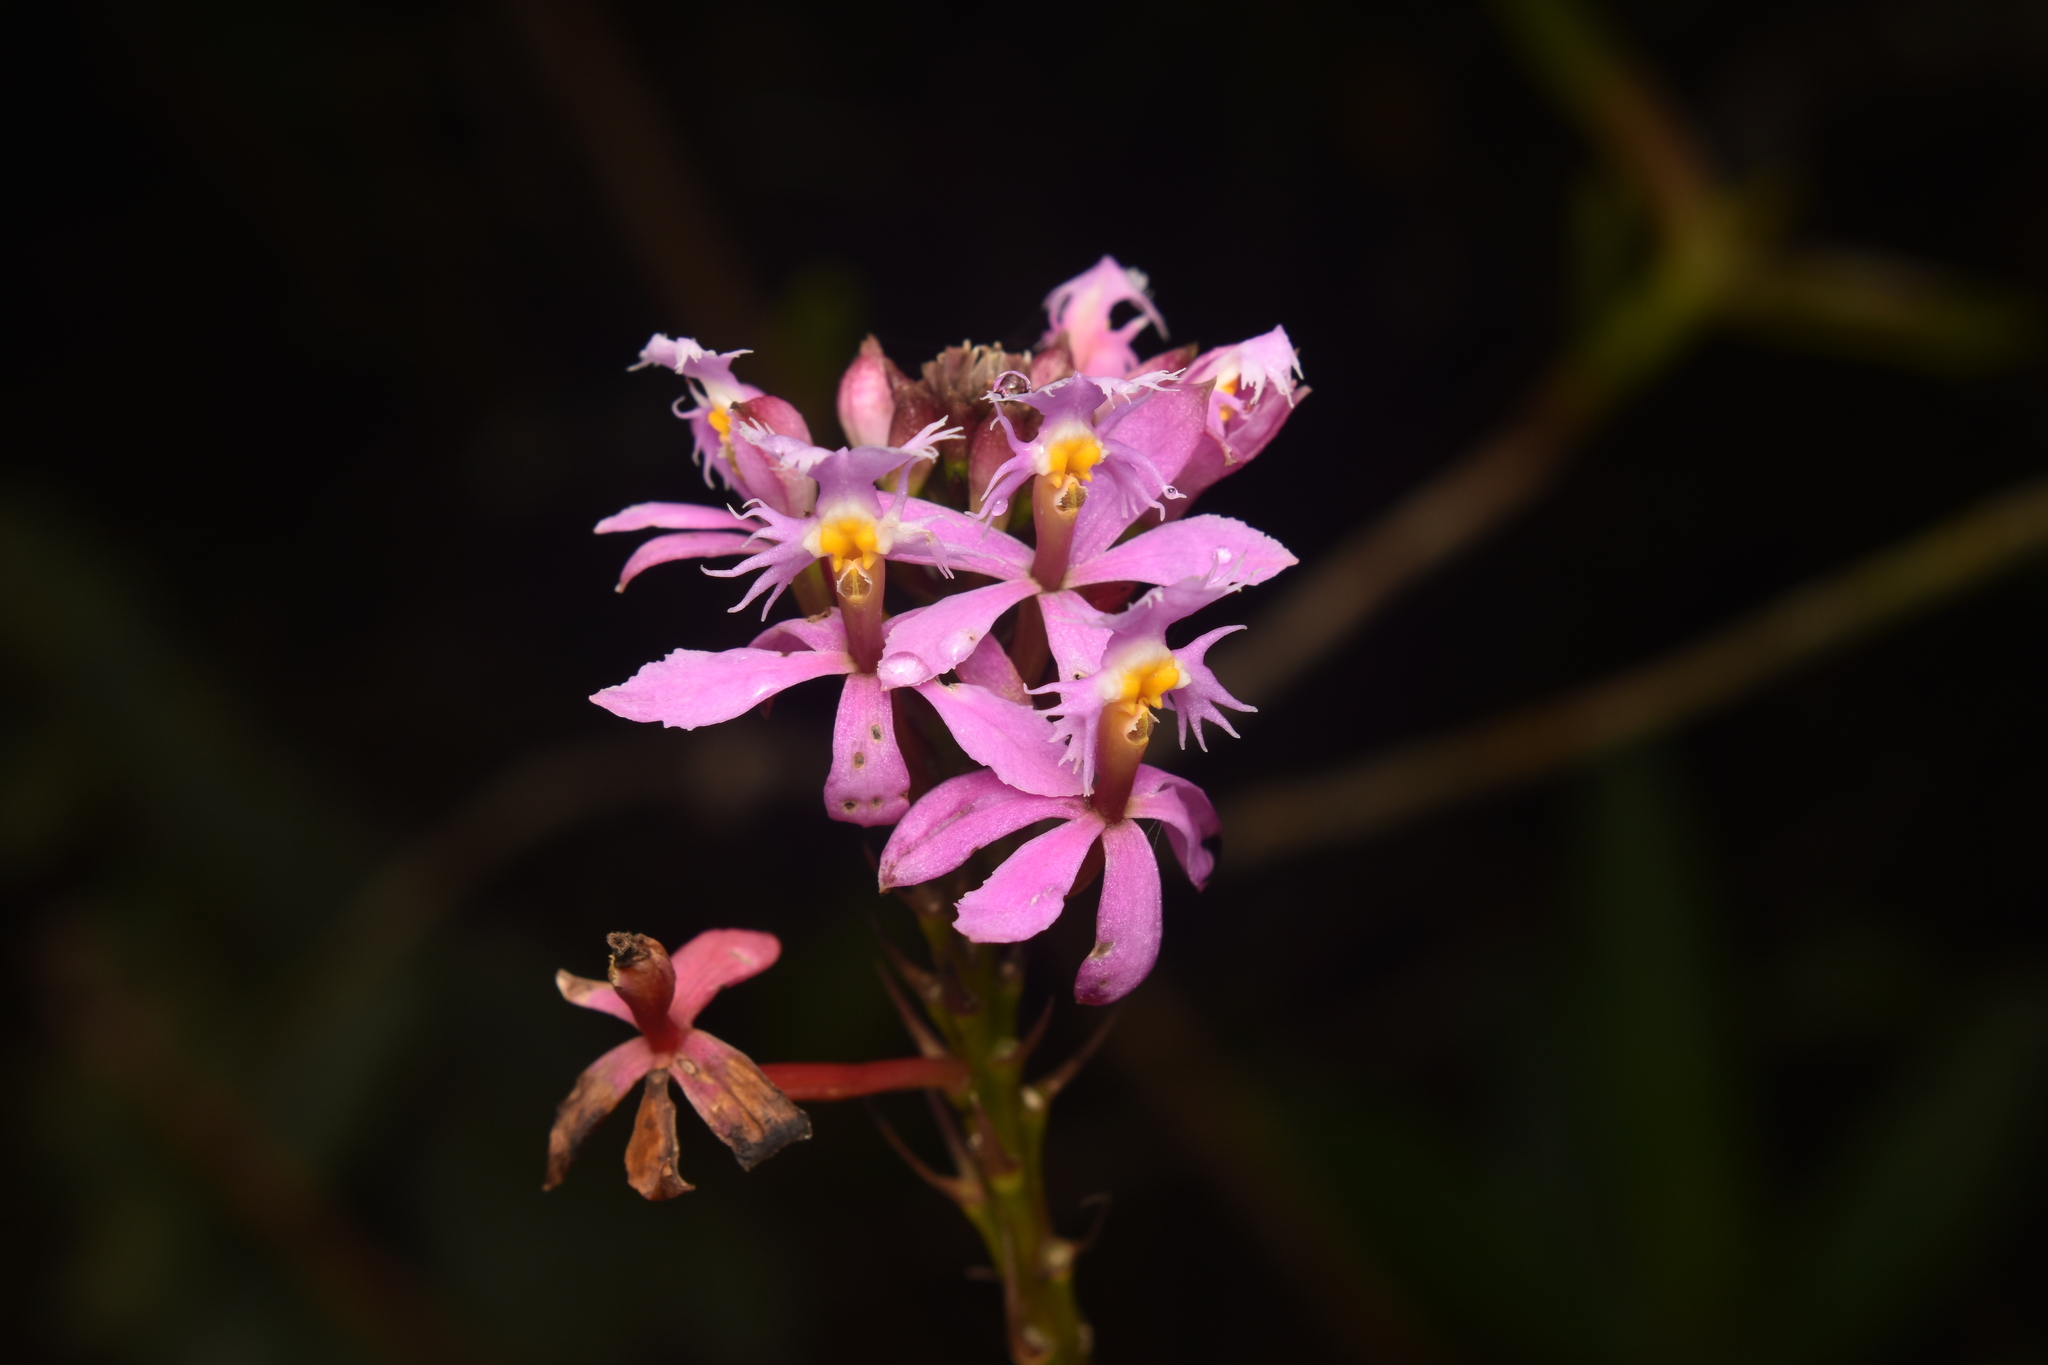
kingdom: Plantae
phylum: Tracheophyta
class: Liliopsida
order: Asparagales
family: Orchidaceae
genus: Epidendrum
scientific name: Epidendrum arachnoglossum
